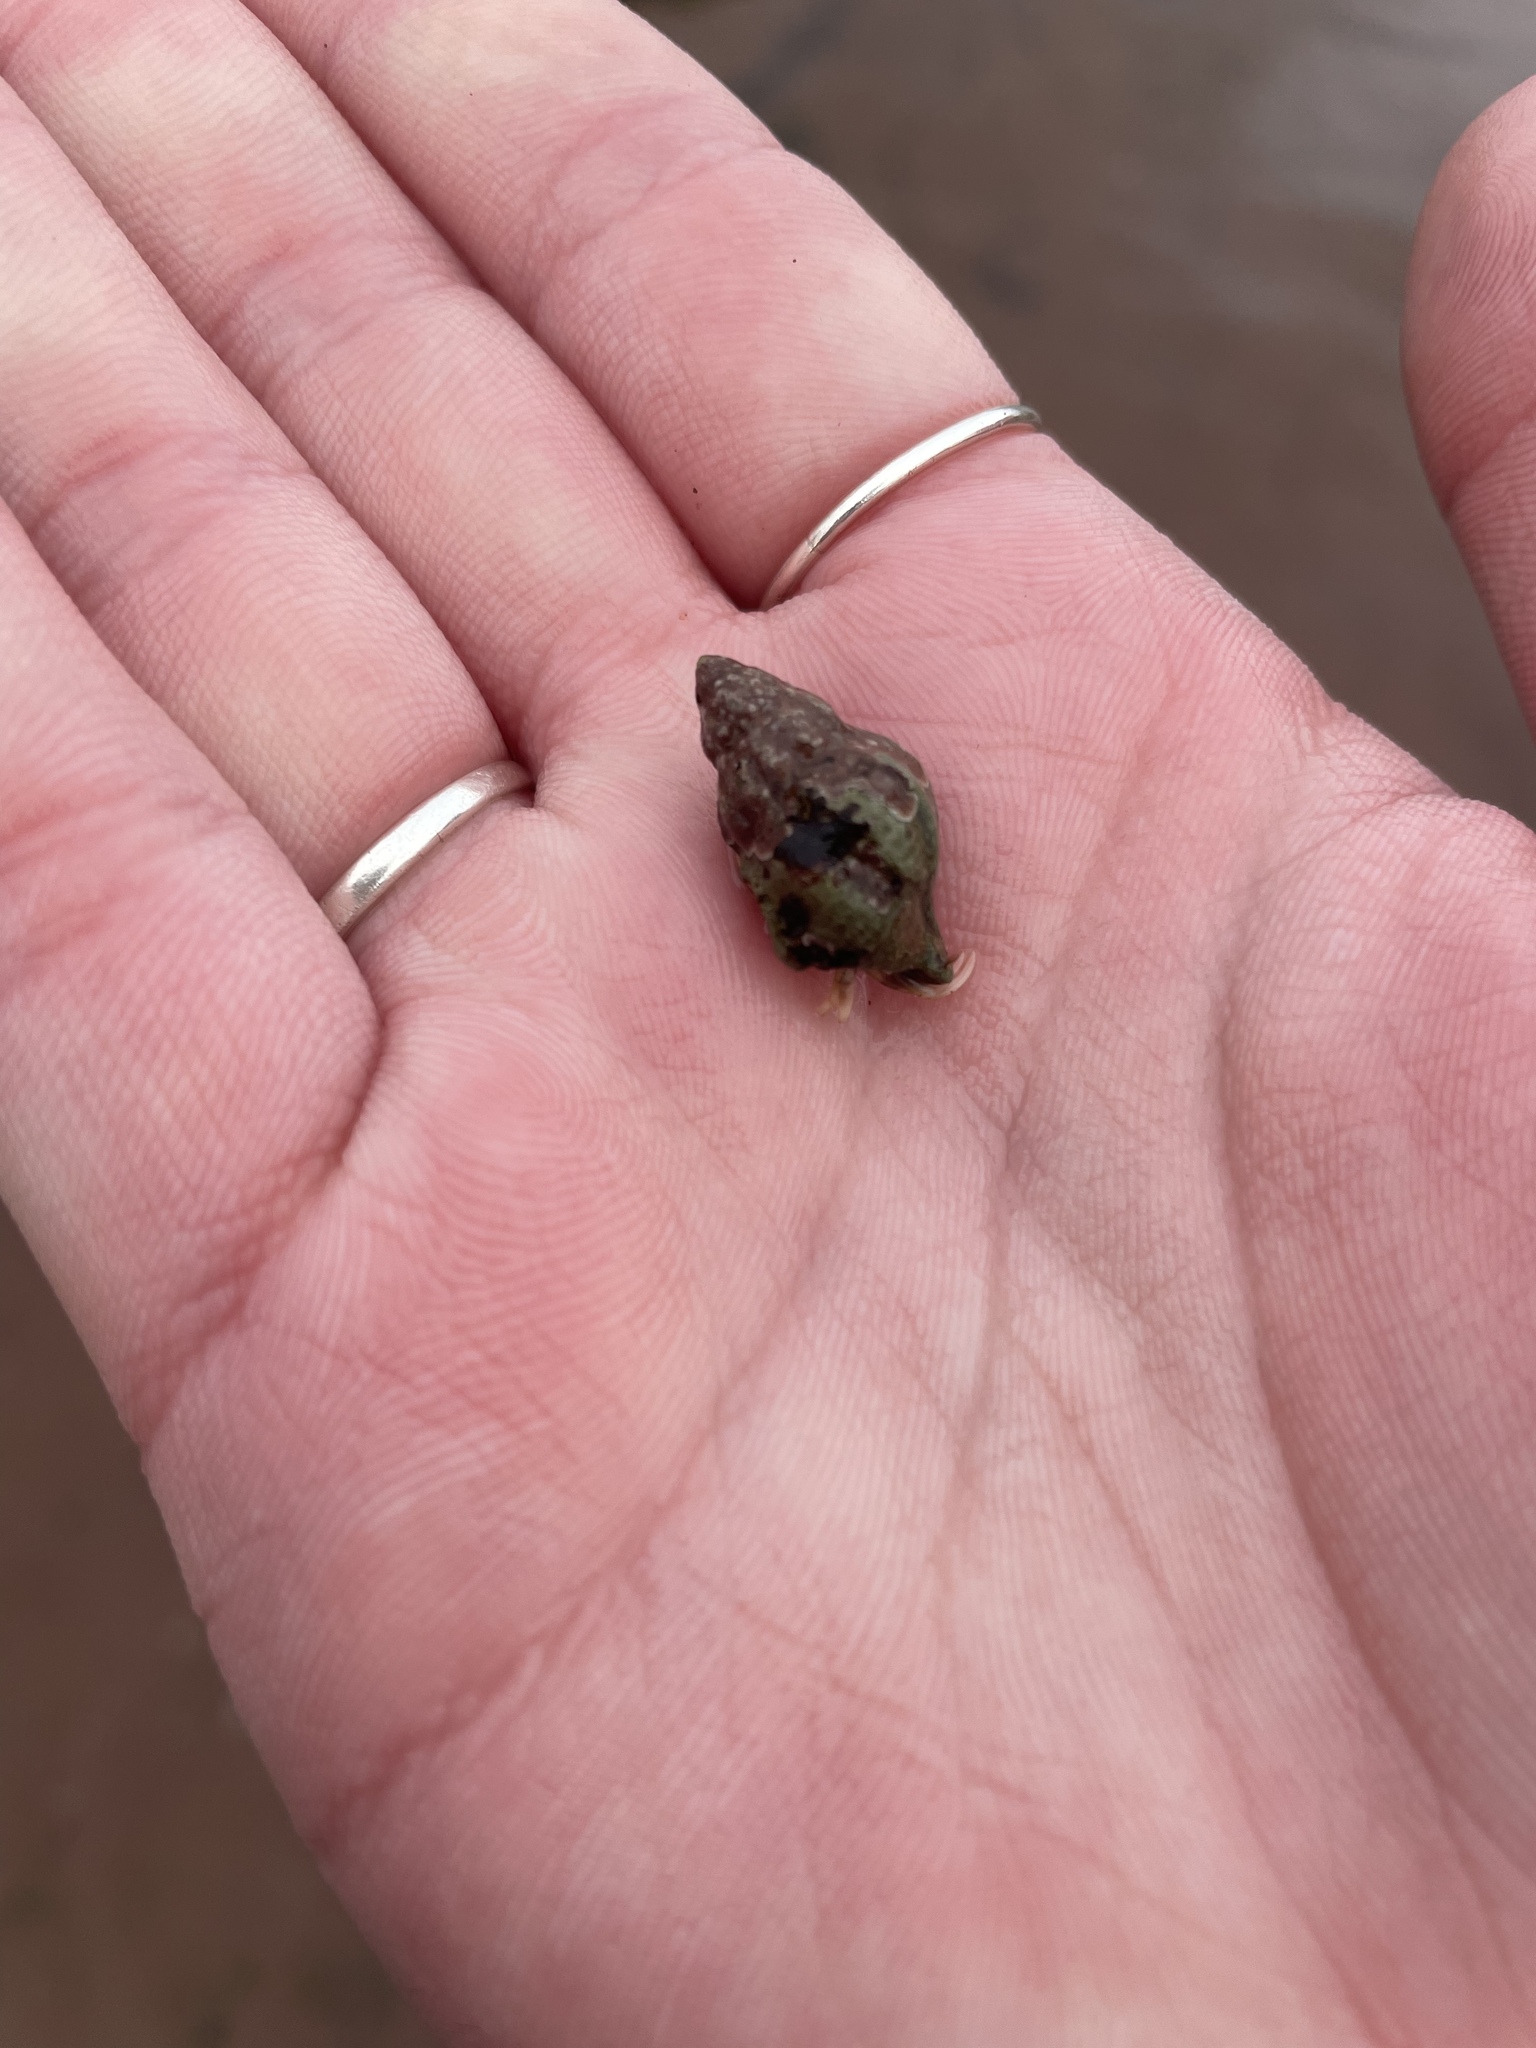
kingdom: Animalia
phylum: Mollusca
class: Gastropoda
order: Neogastropoda
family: Muricidae
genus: Urosalpinx
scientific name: Urosalpinx cinerea
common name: American sting winkle
